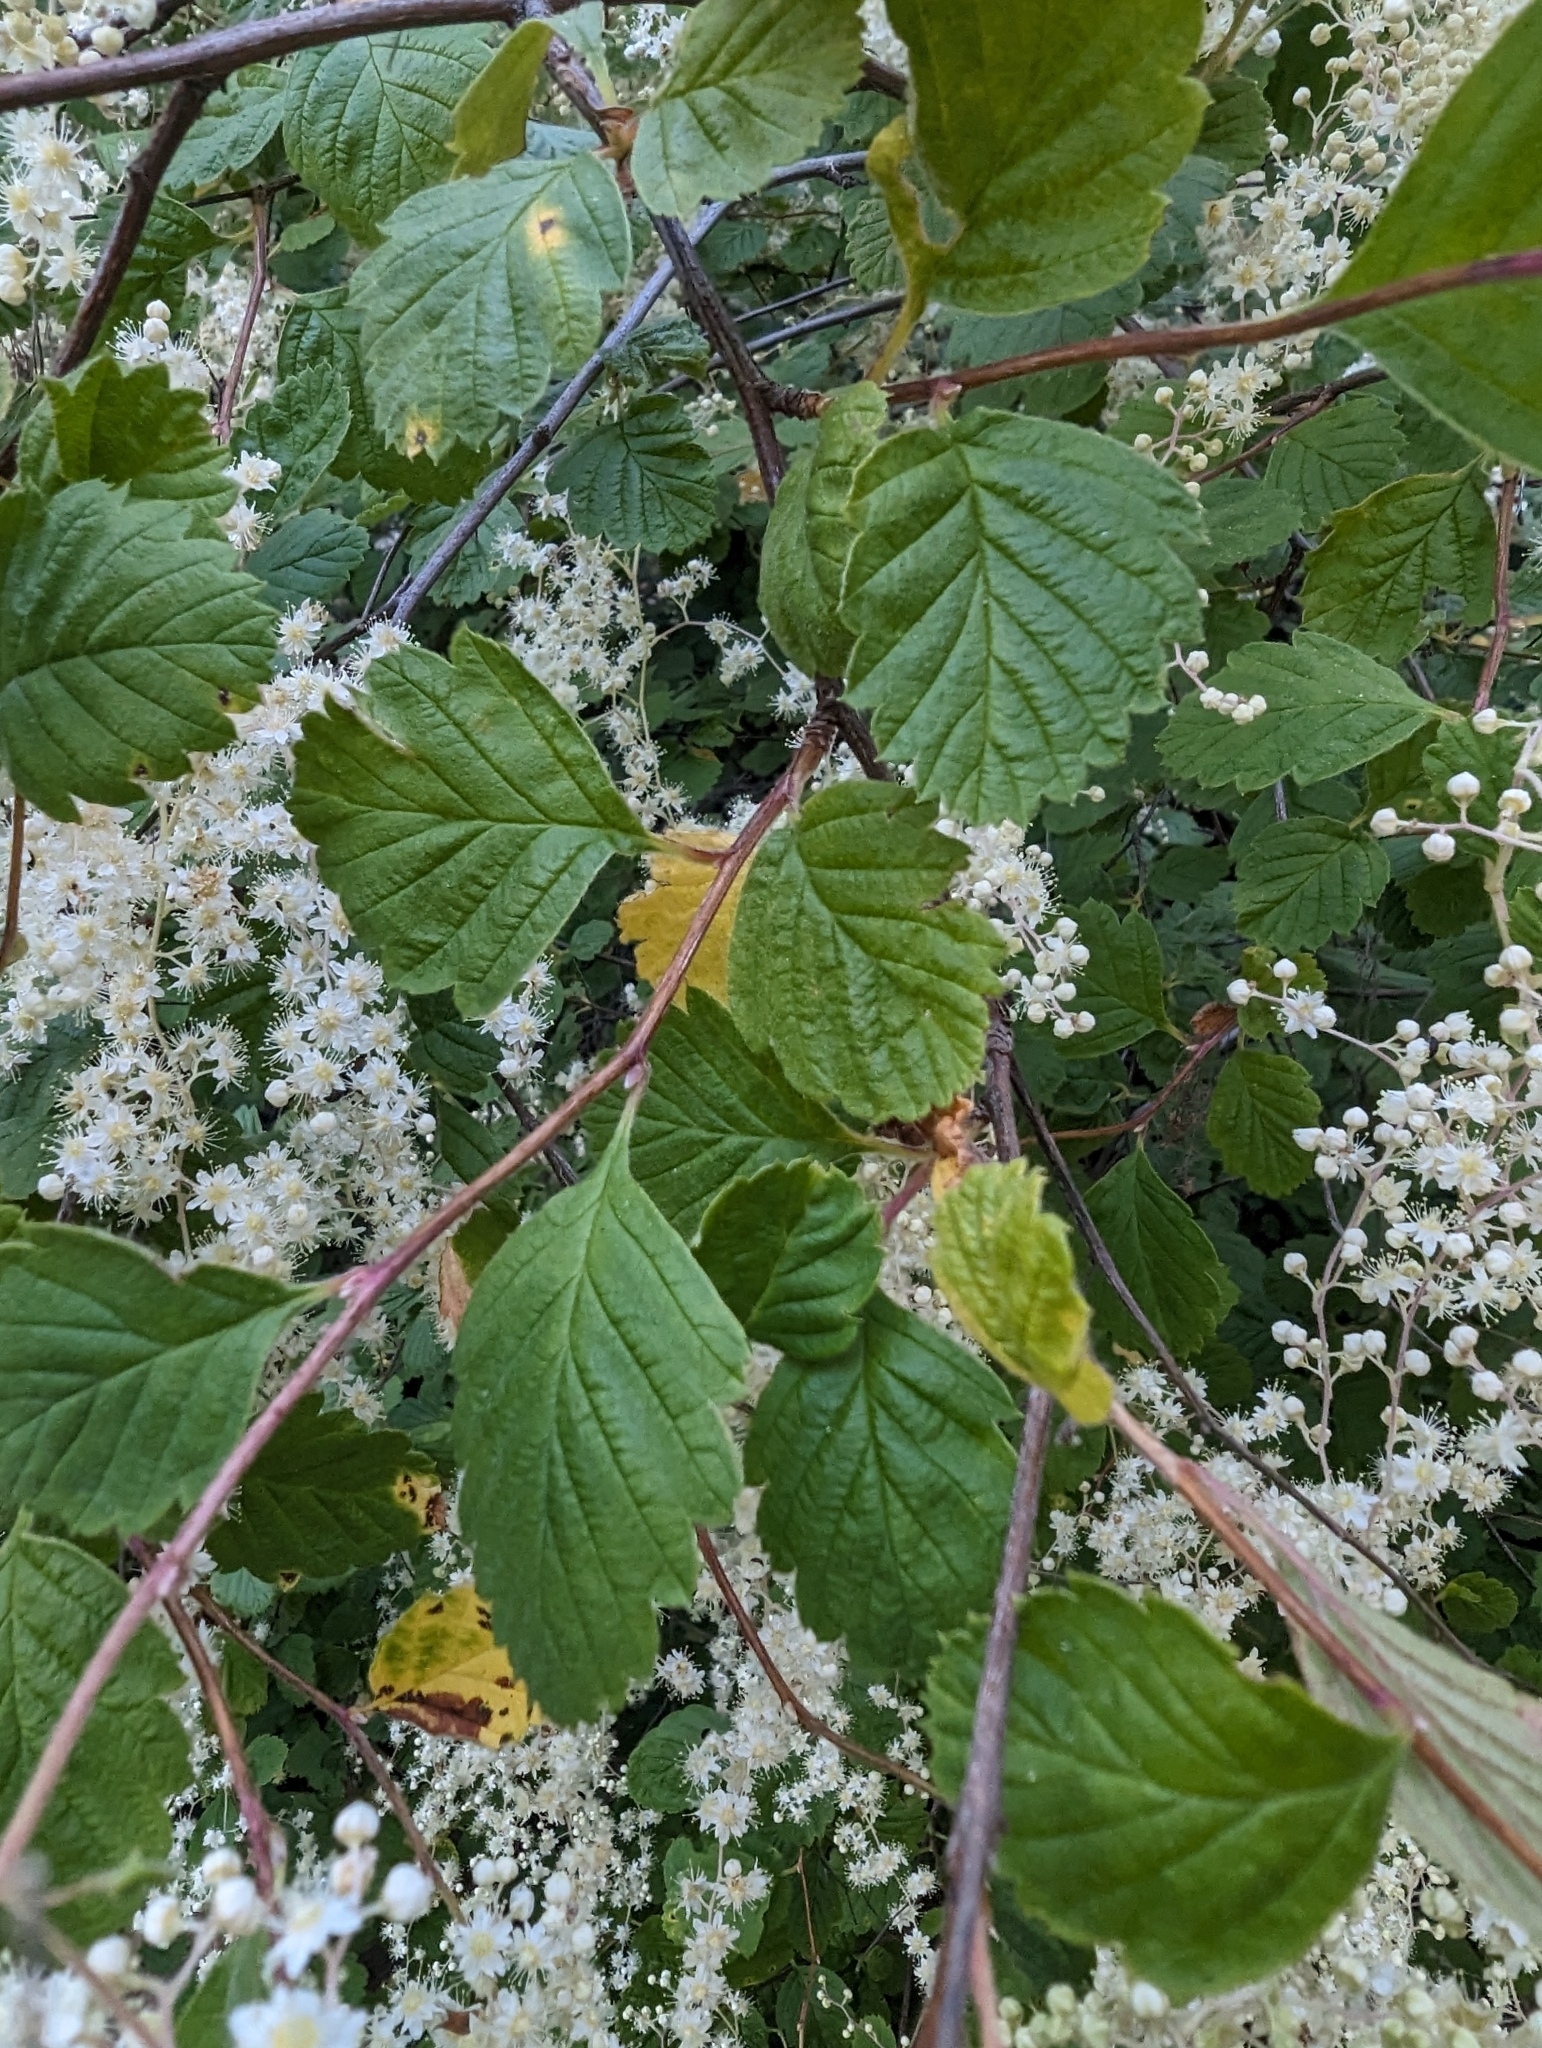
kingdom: Plantae
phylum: Tracheophyta
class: Magnoliopsida
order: Rosales
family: Rosaceae
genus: Holodiscus
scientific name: Holodiscus discolor
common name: Oceanspray
